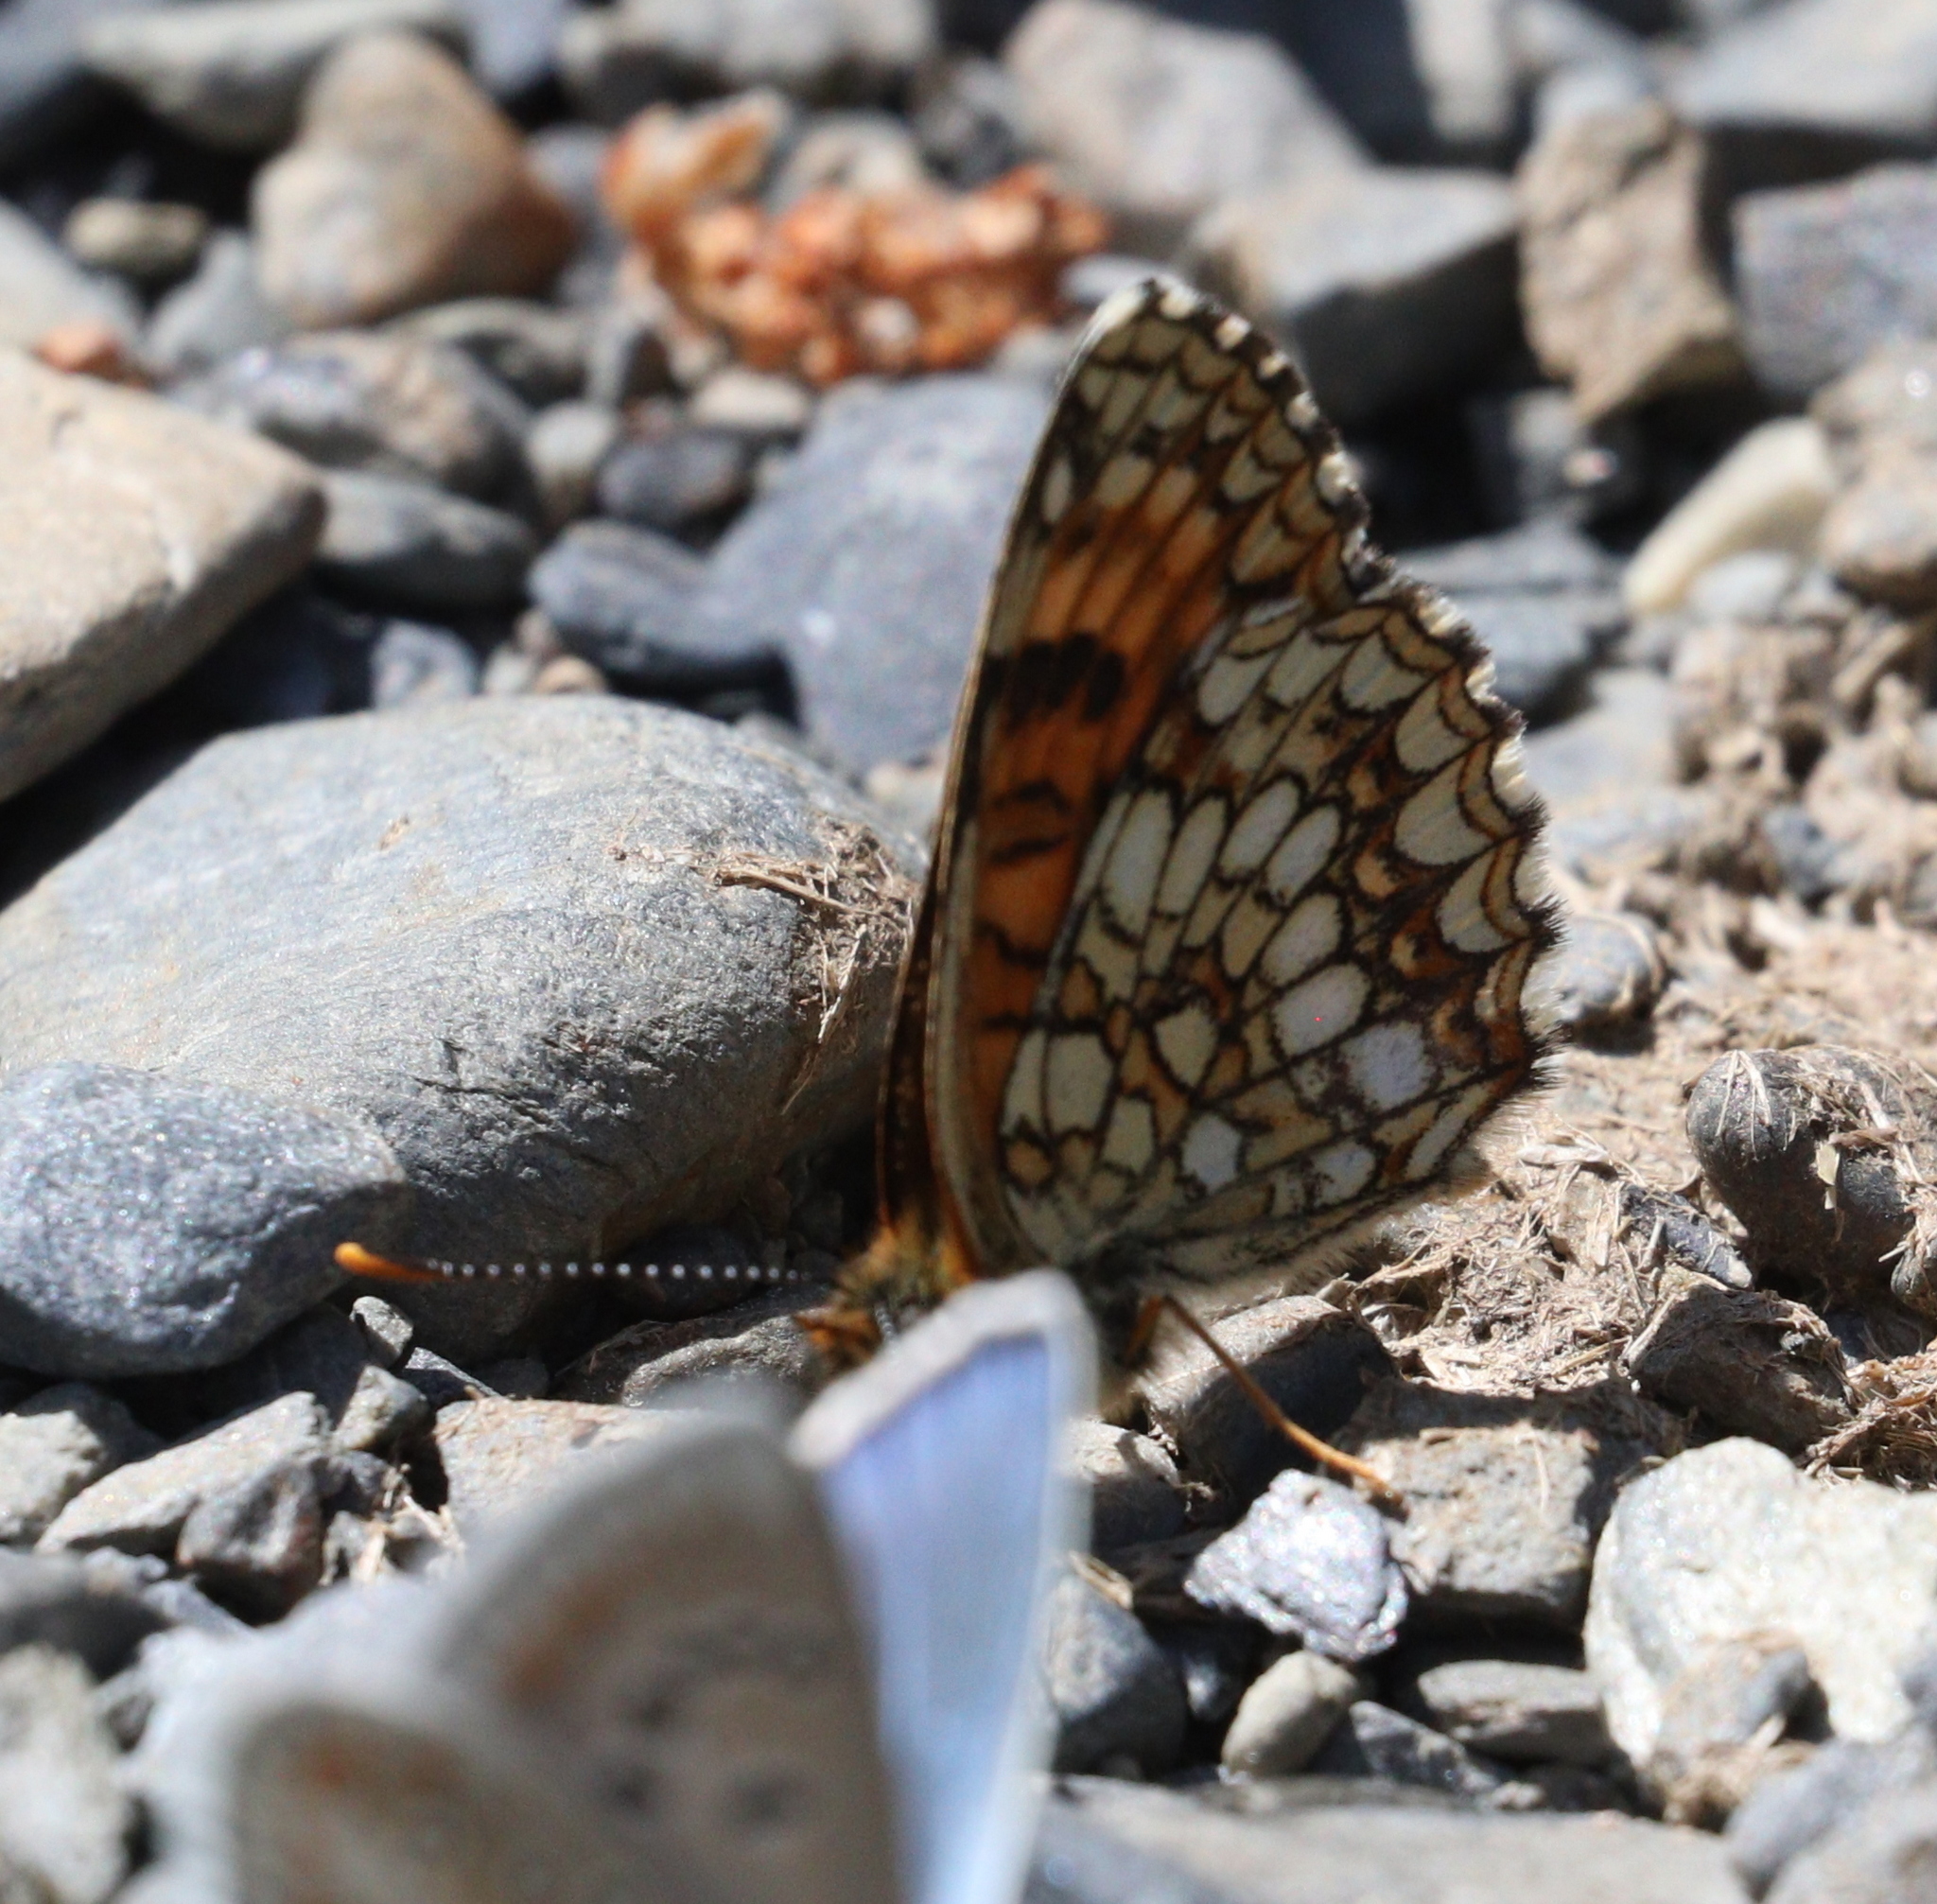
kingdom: Animalia
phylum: Arthropoda
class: Insecta
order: Lepidoptera
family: Nymphalidae
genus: Melitaea
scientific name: Melitaea diamina
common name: False heath fritillary
